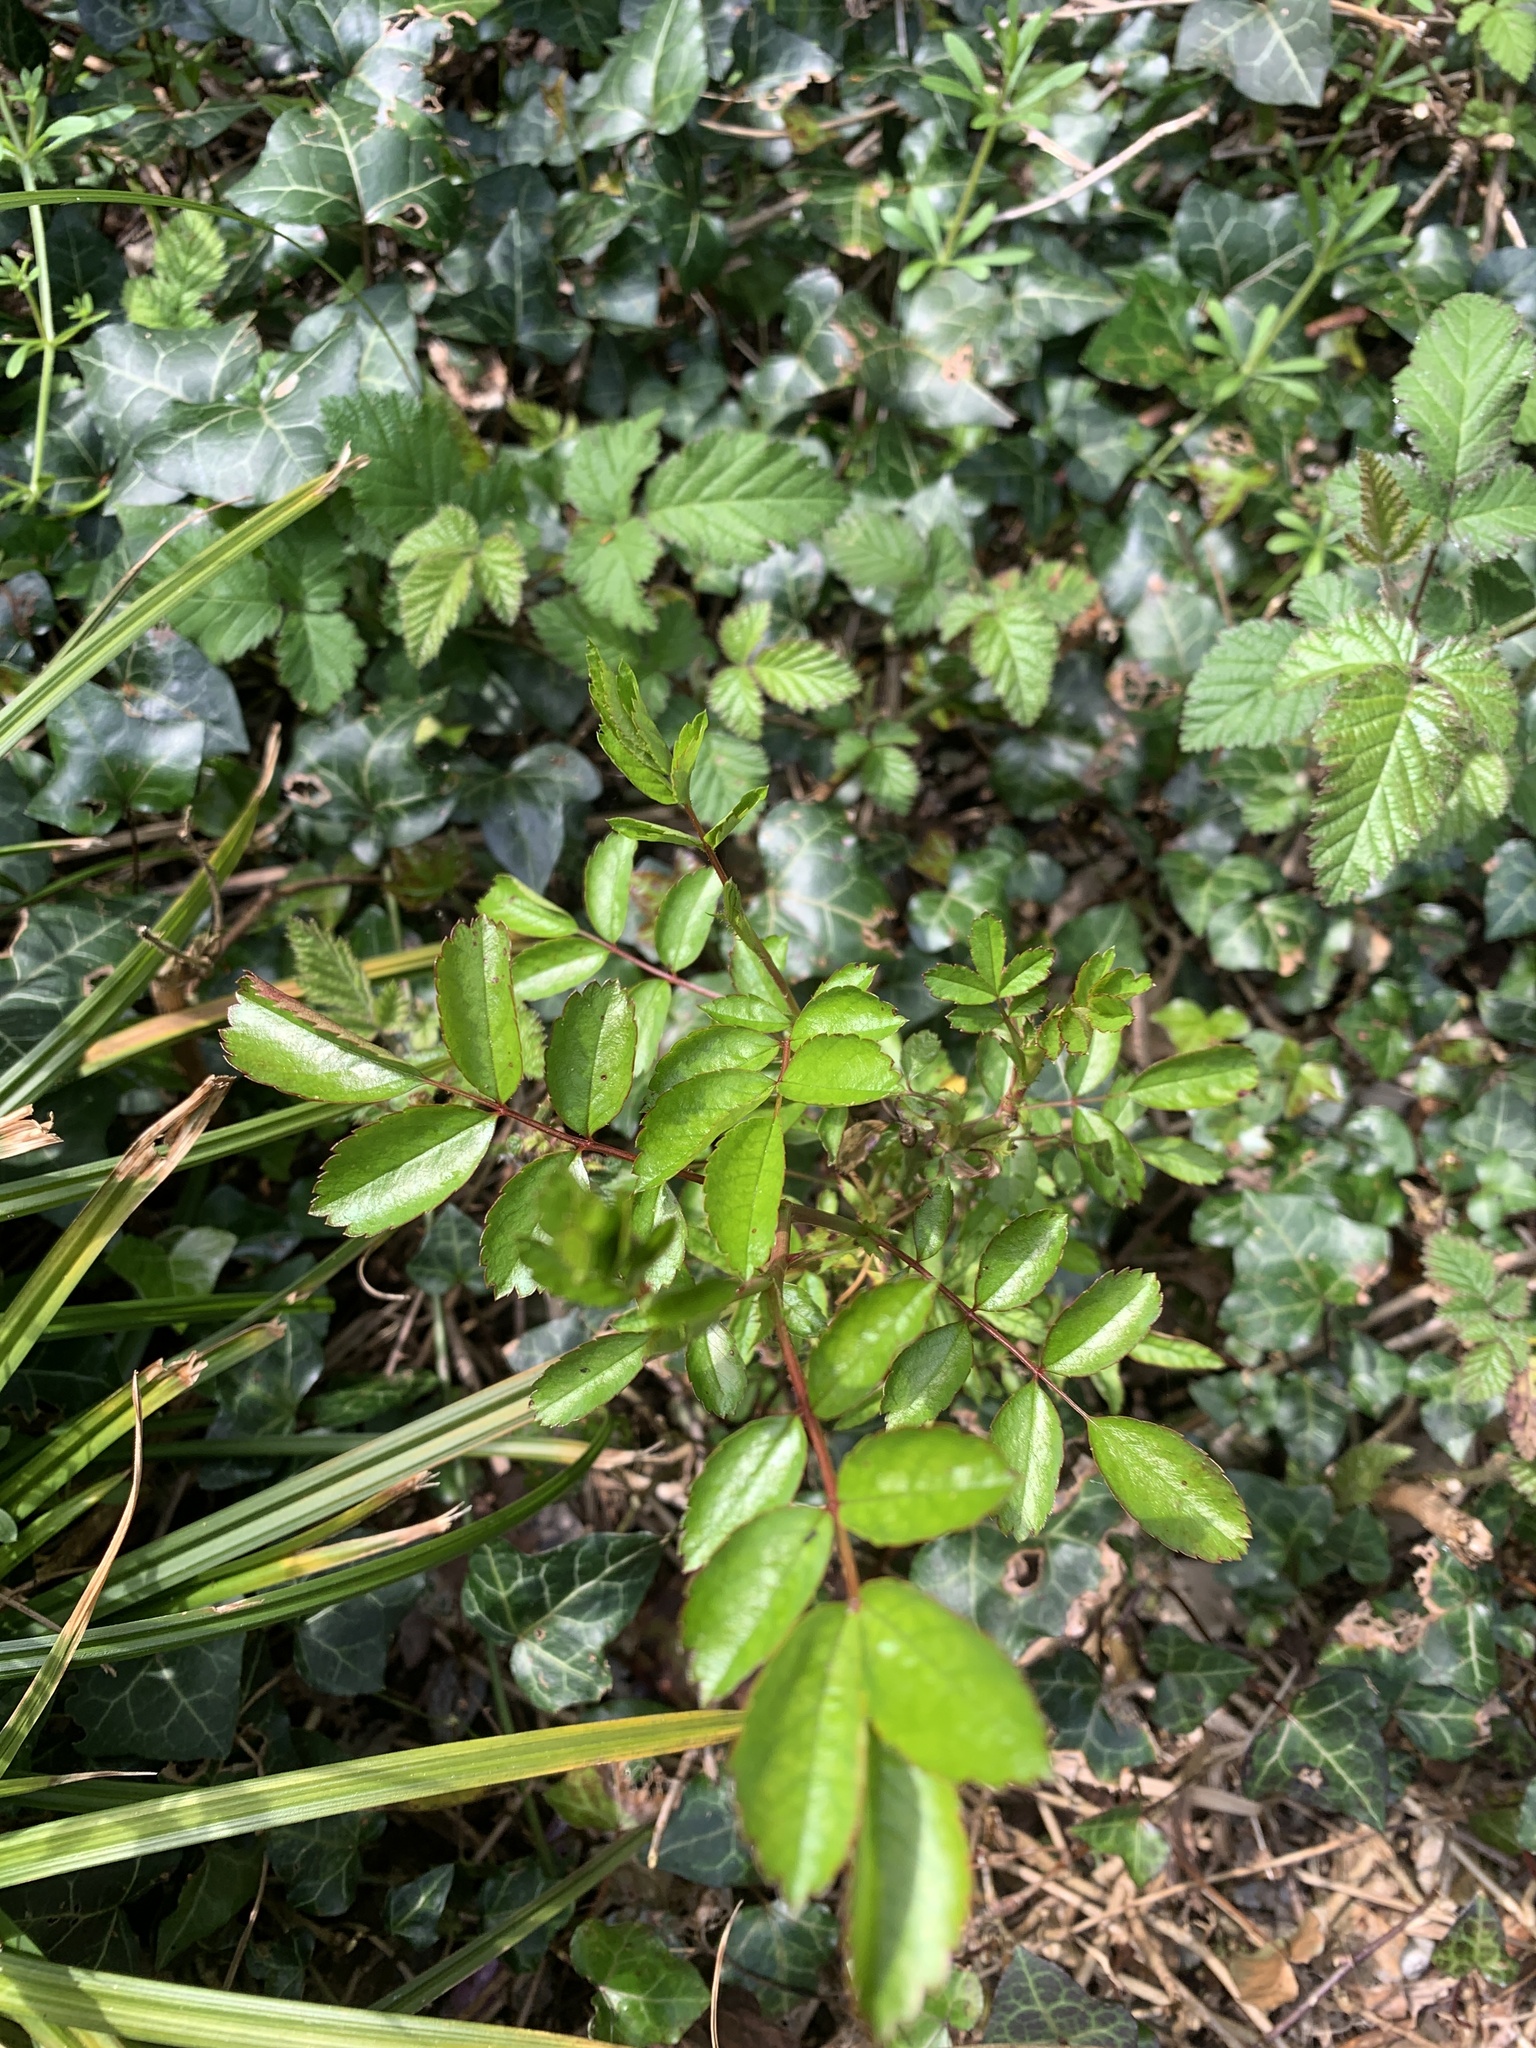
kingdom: Plantae
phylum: Tracheophyta
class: Magnoliopsida
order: Rosales
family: Rosaceae
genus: Rosa
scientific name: Rosa canina
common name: Dog rose
